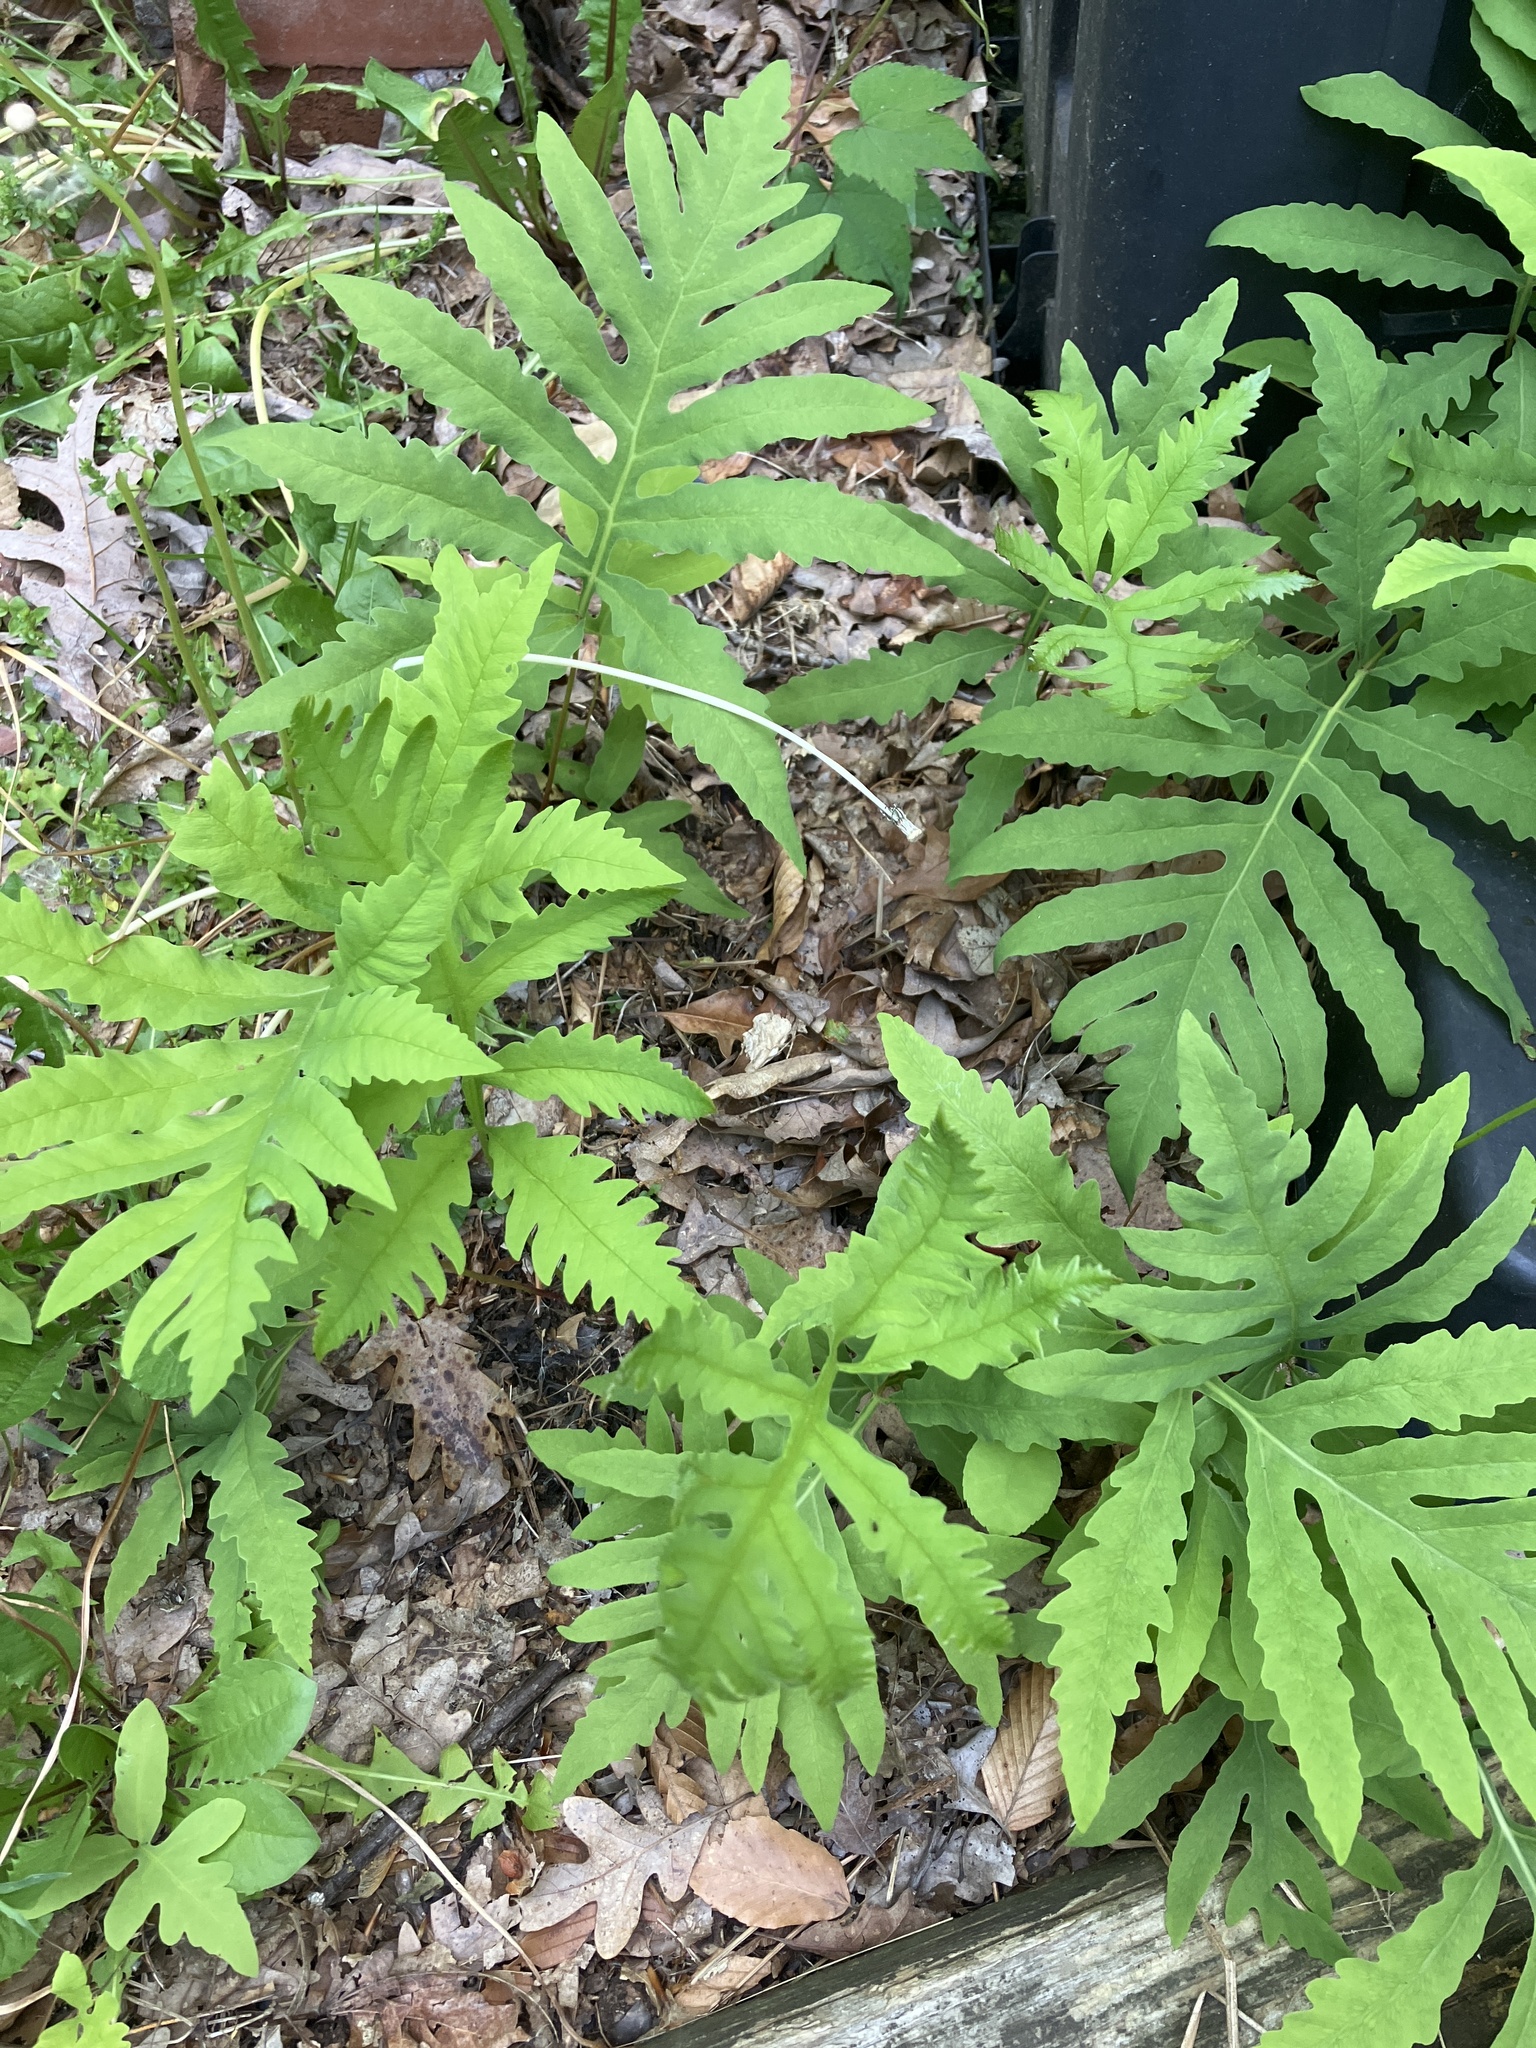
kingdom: Plantae
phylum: Tracheophyta
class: Polypodiopsida
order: Polypodiales
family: Onocleaceae
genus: Onoclea
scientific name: Onoclea sensibilis
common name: Sensitive fern
